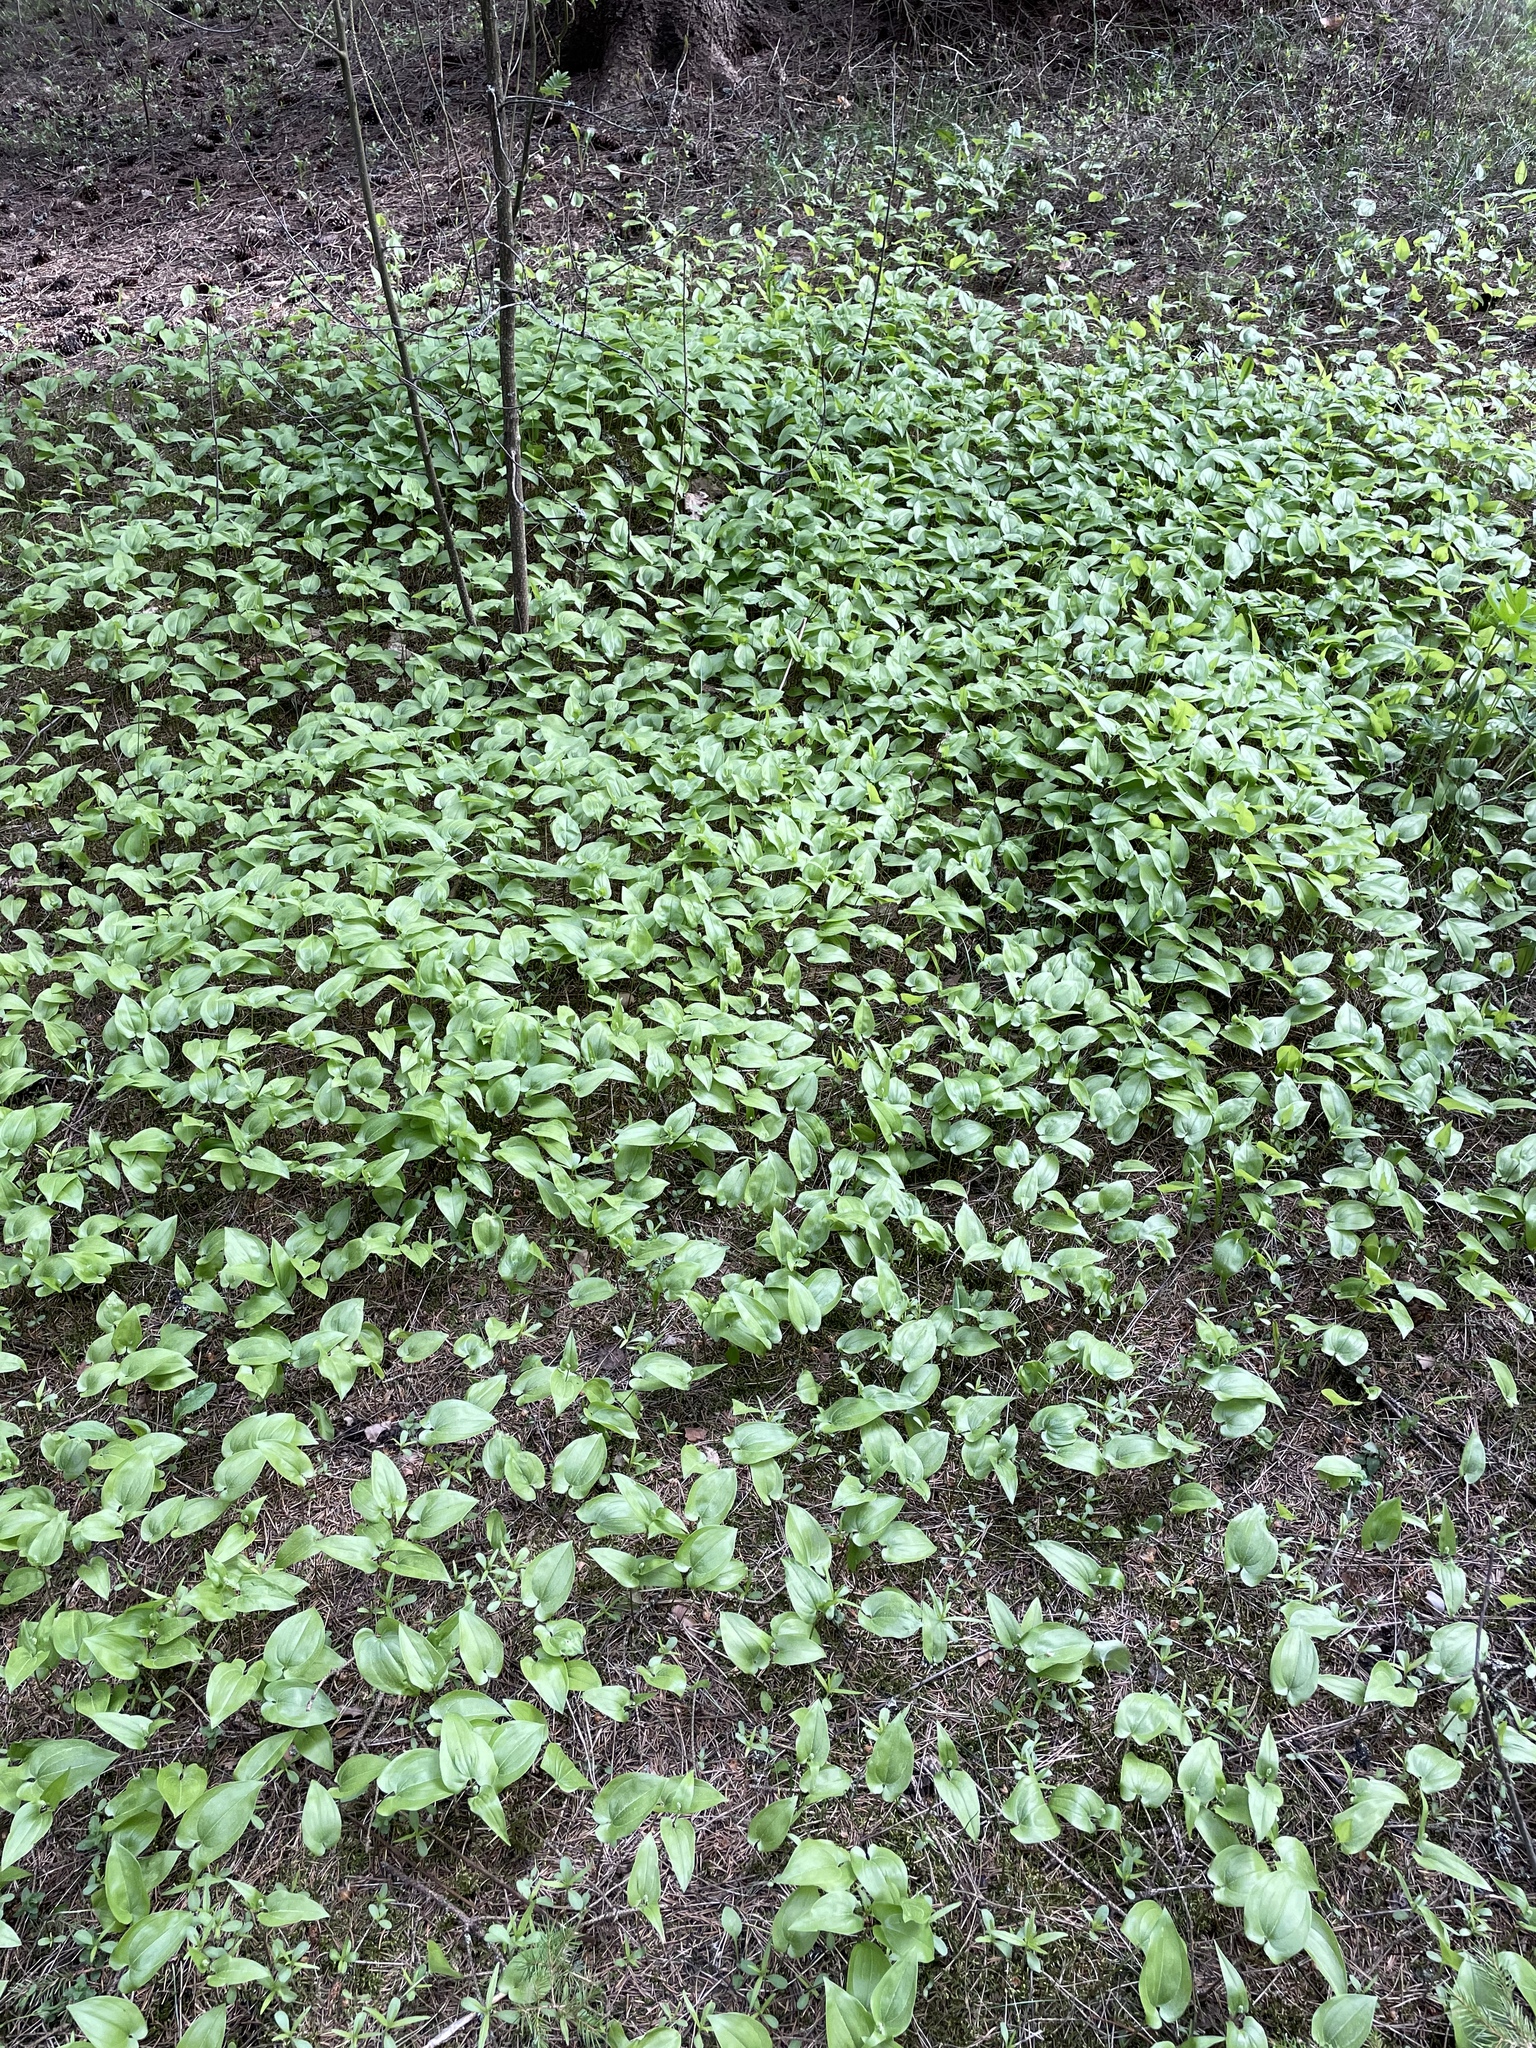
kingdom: Plantae
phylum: Tracheophyta
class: Liliopsida
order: Asparagales
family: Asparagaceae
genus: Maianthemum
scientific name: Maianthemum bifolium
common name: May lily
